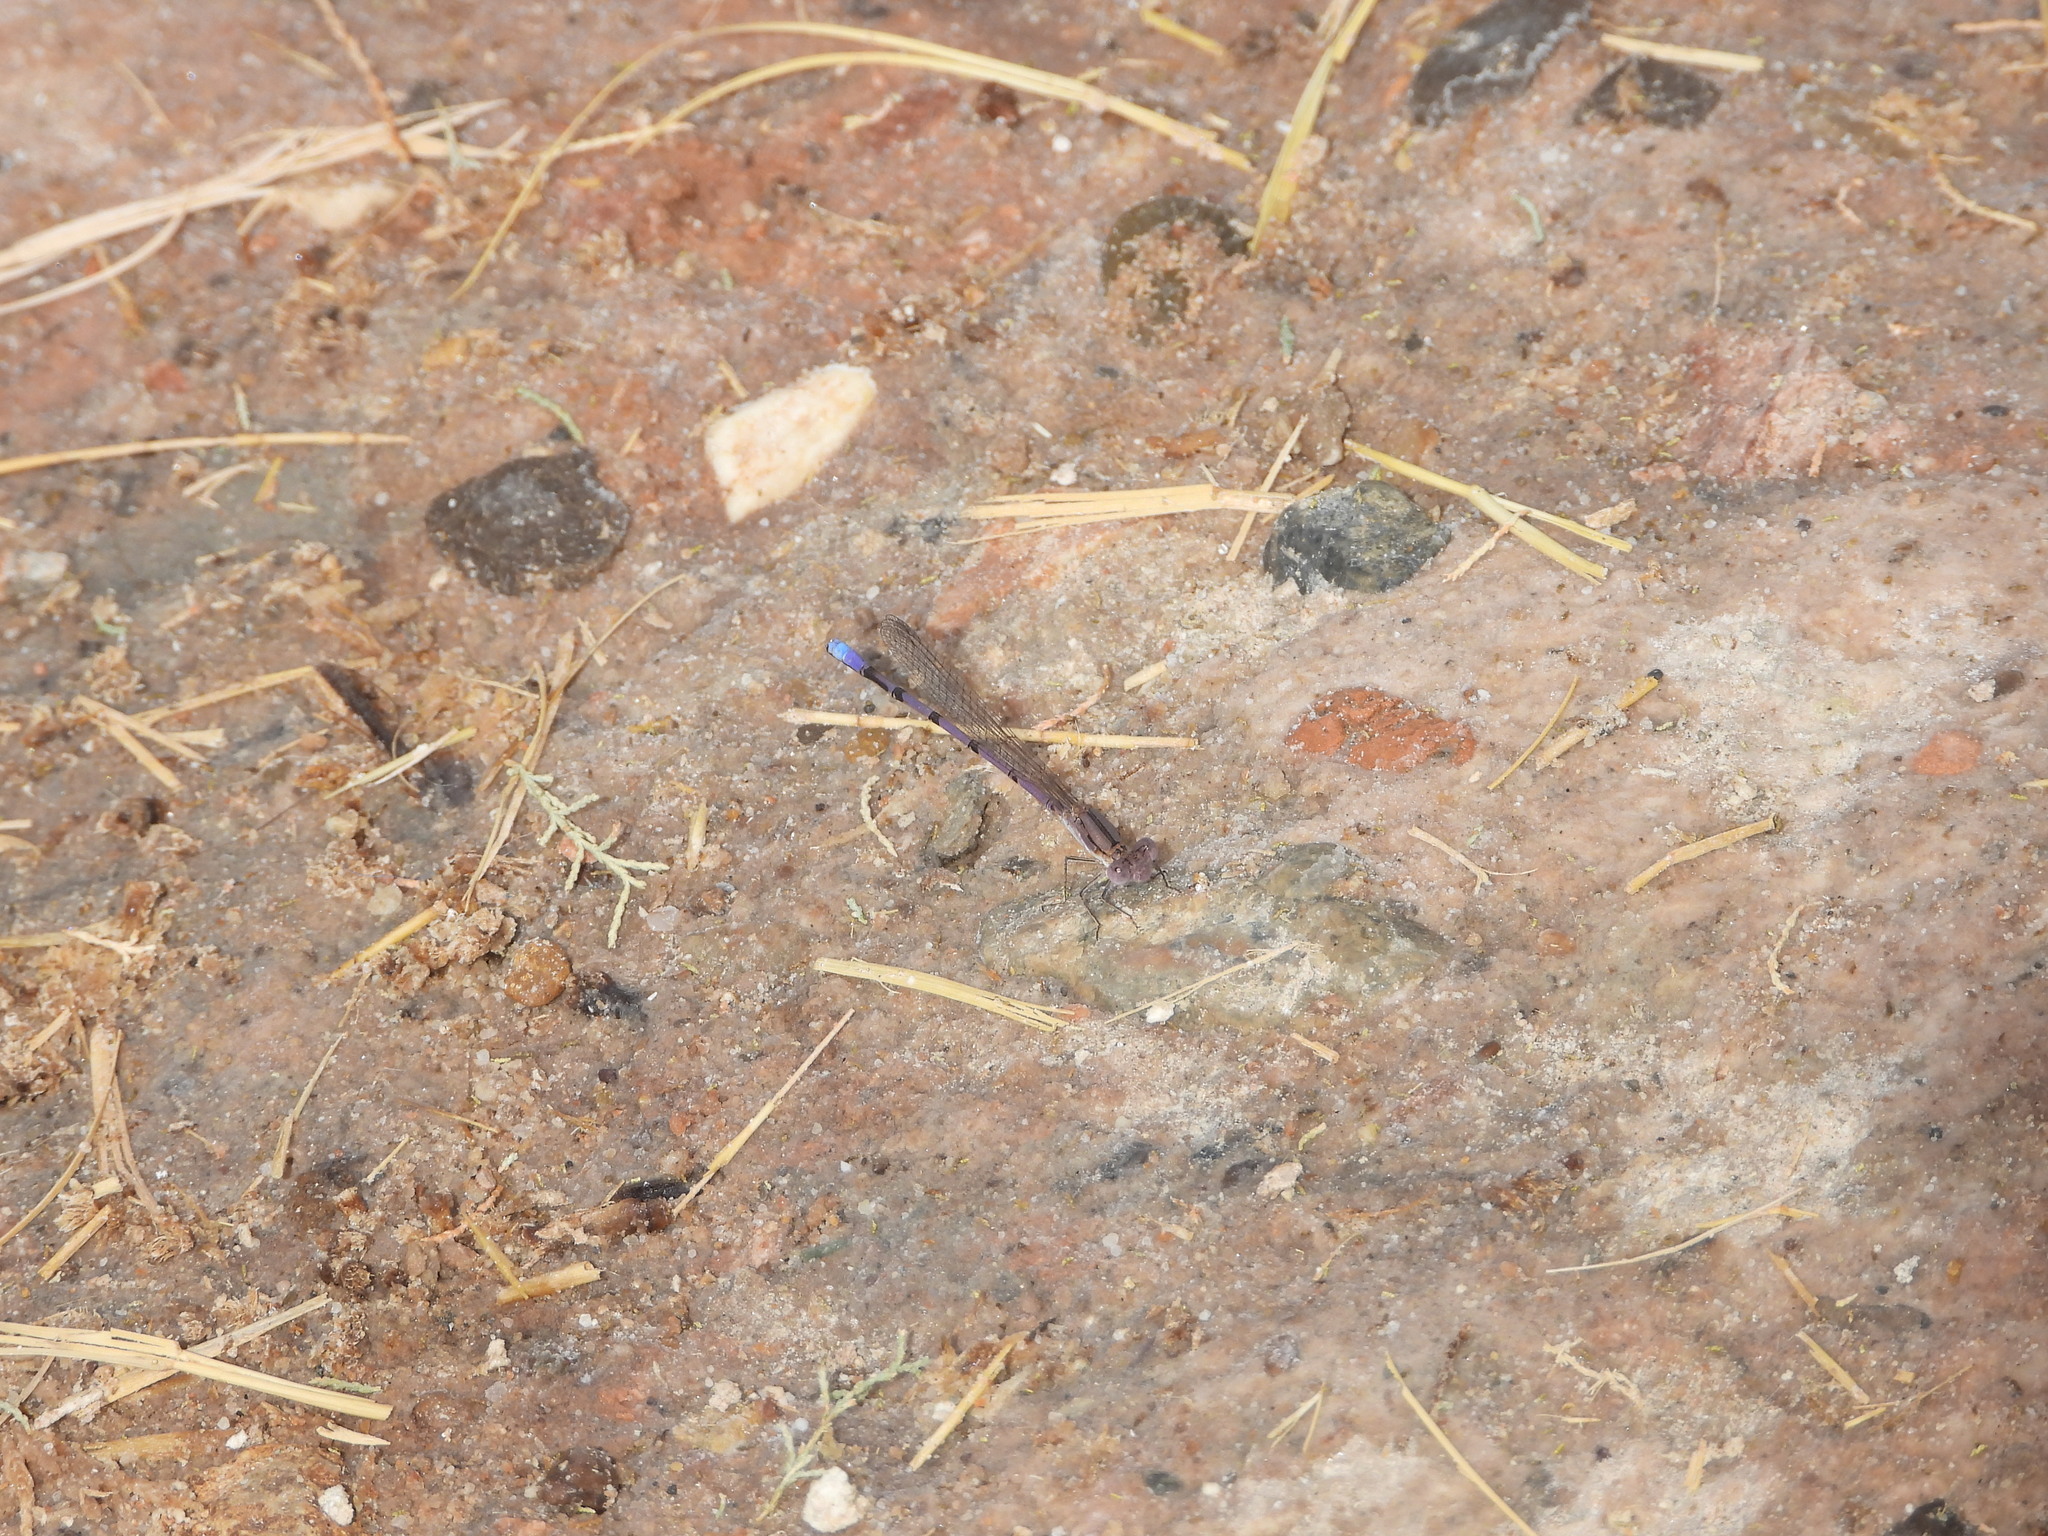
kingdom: Animalia
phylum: Arthropoda
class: Insecta
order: Odonata
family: Coenagrionidae
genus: Argia
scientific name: Argia fumipennis
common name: Variable dancer
